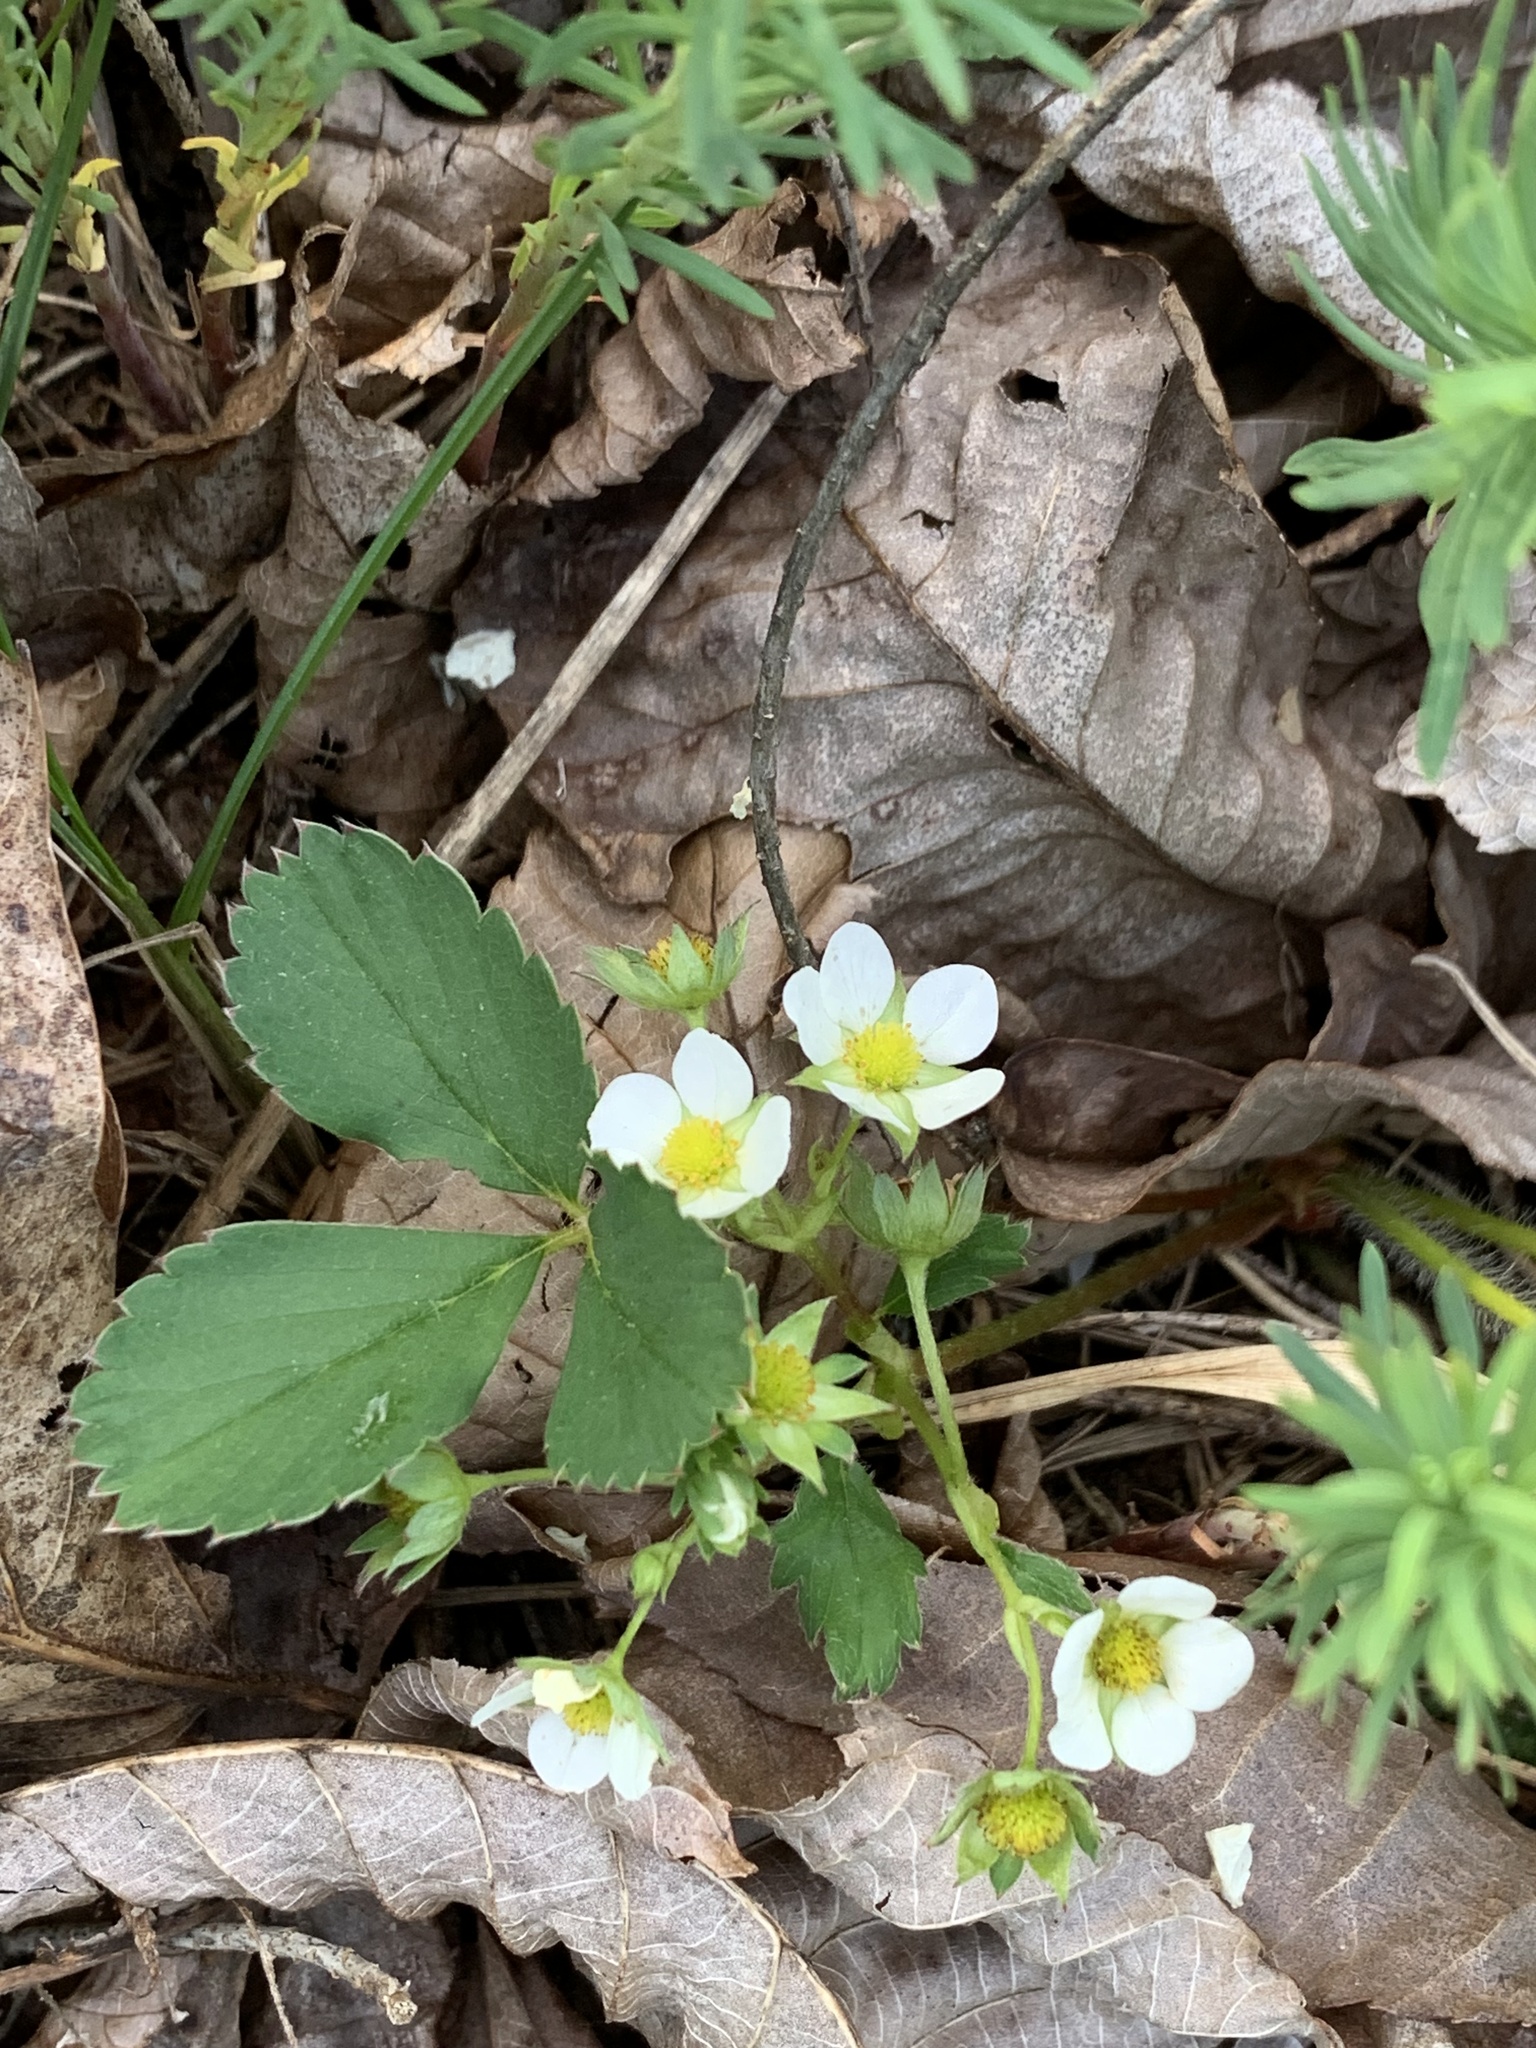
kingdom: Plantae
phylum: Tracheophyta
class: Magnoliopsida
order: Rosales
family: Rosaceae
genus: Fragaria
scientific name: Fragaria virginiana
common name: Thickleaved wild strawberry
